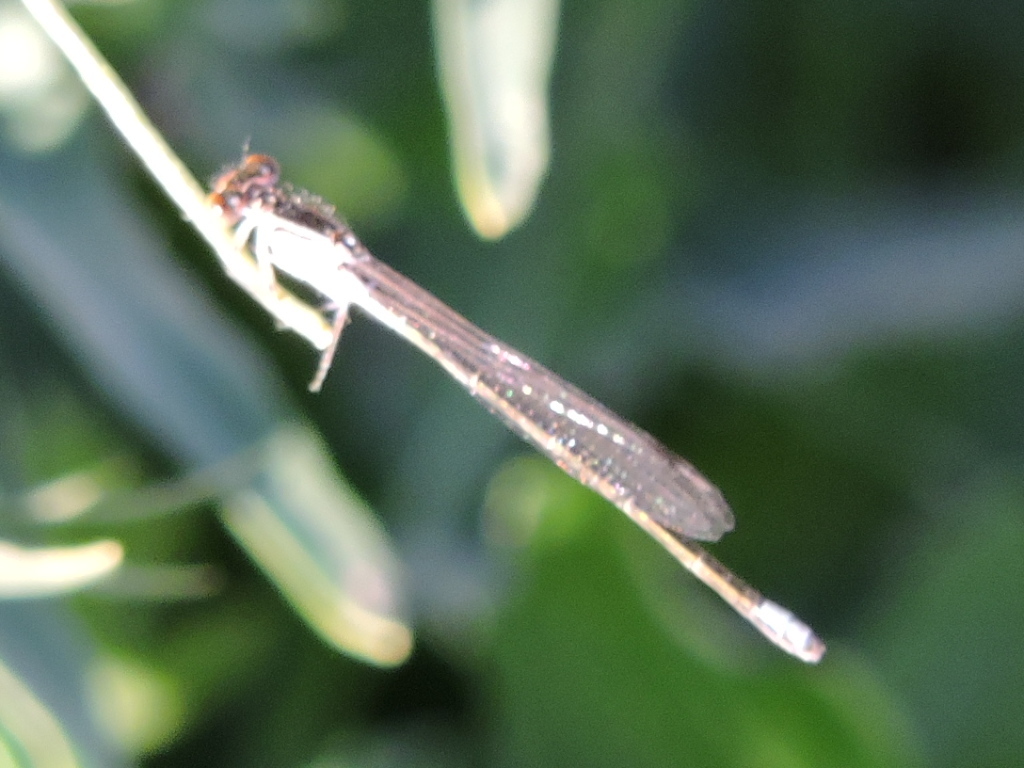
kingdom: Animalia
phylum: Arthropoda
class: Insecta
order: Odonata
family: Coenagrionidae
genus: Ischnura
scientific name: Ischnura denticollis
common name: Black-fronted forktail
